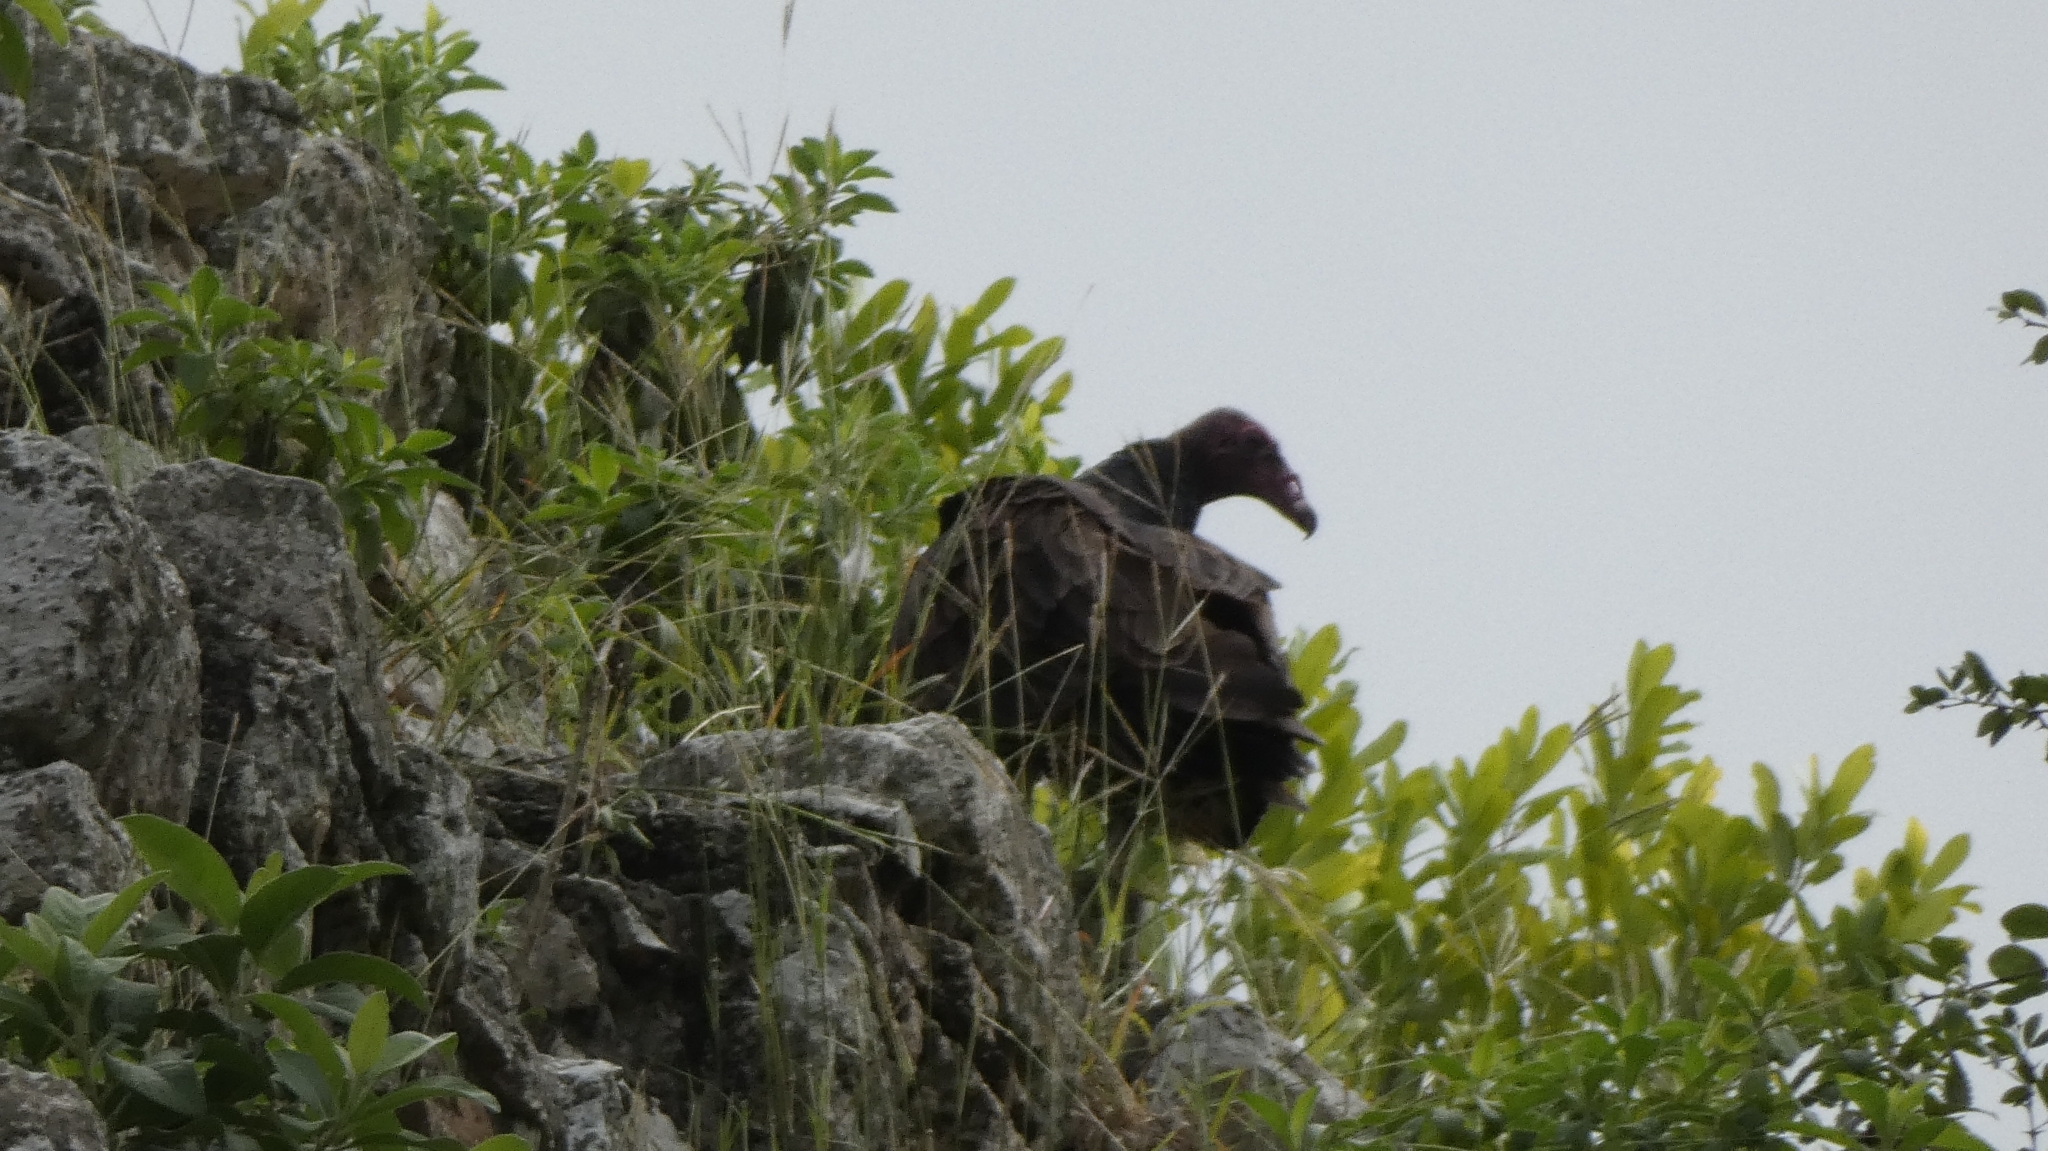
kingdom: Animalia
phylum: Chordata
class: Aves
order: Accipitriformes
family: Cathartidae
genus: Cathartes
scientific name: Cathartes aura
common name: Turkey vulture
